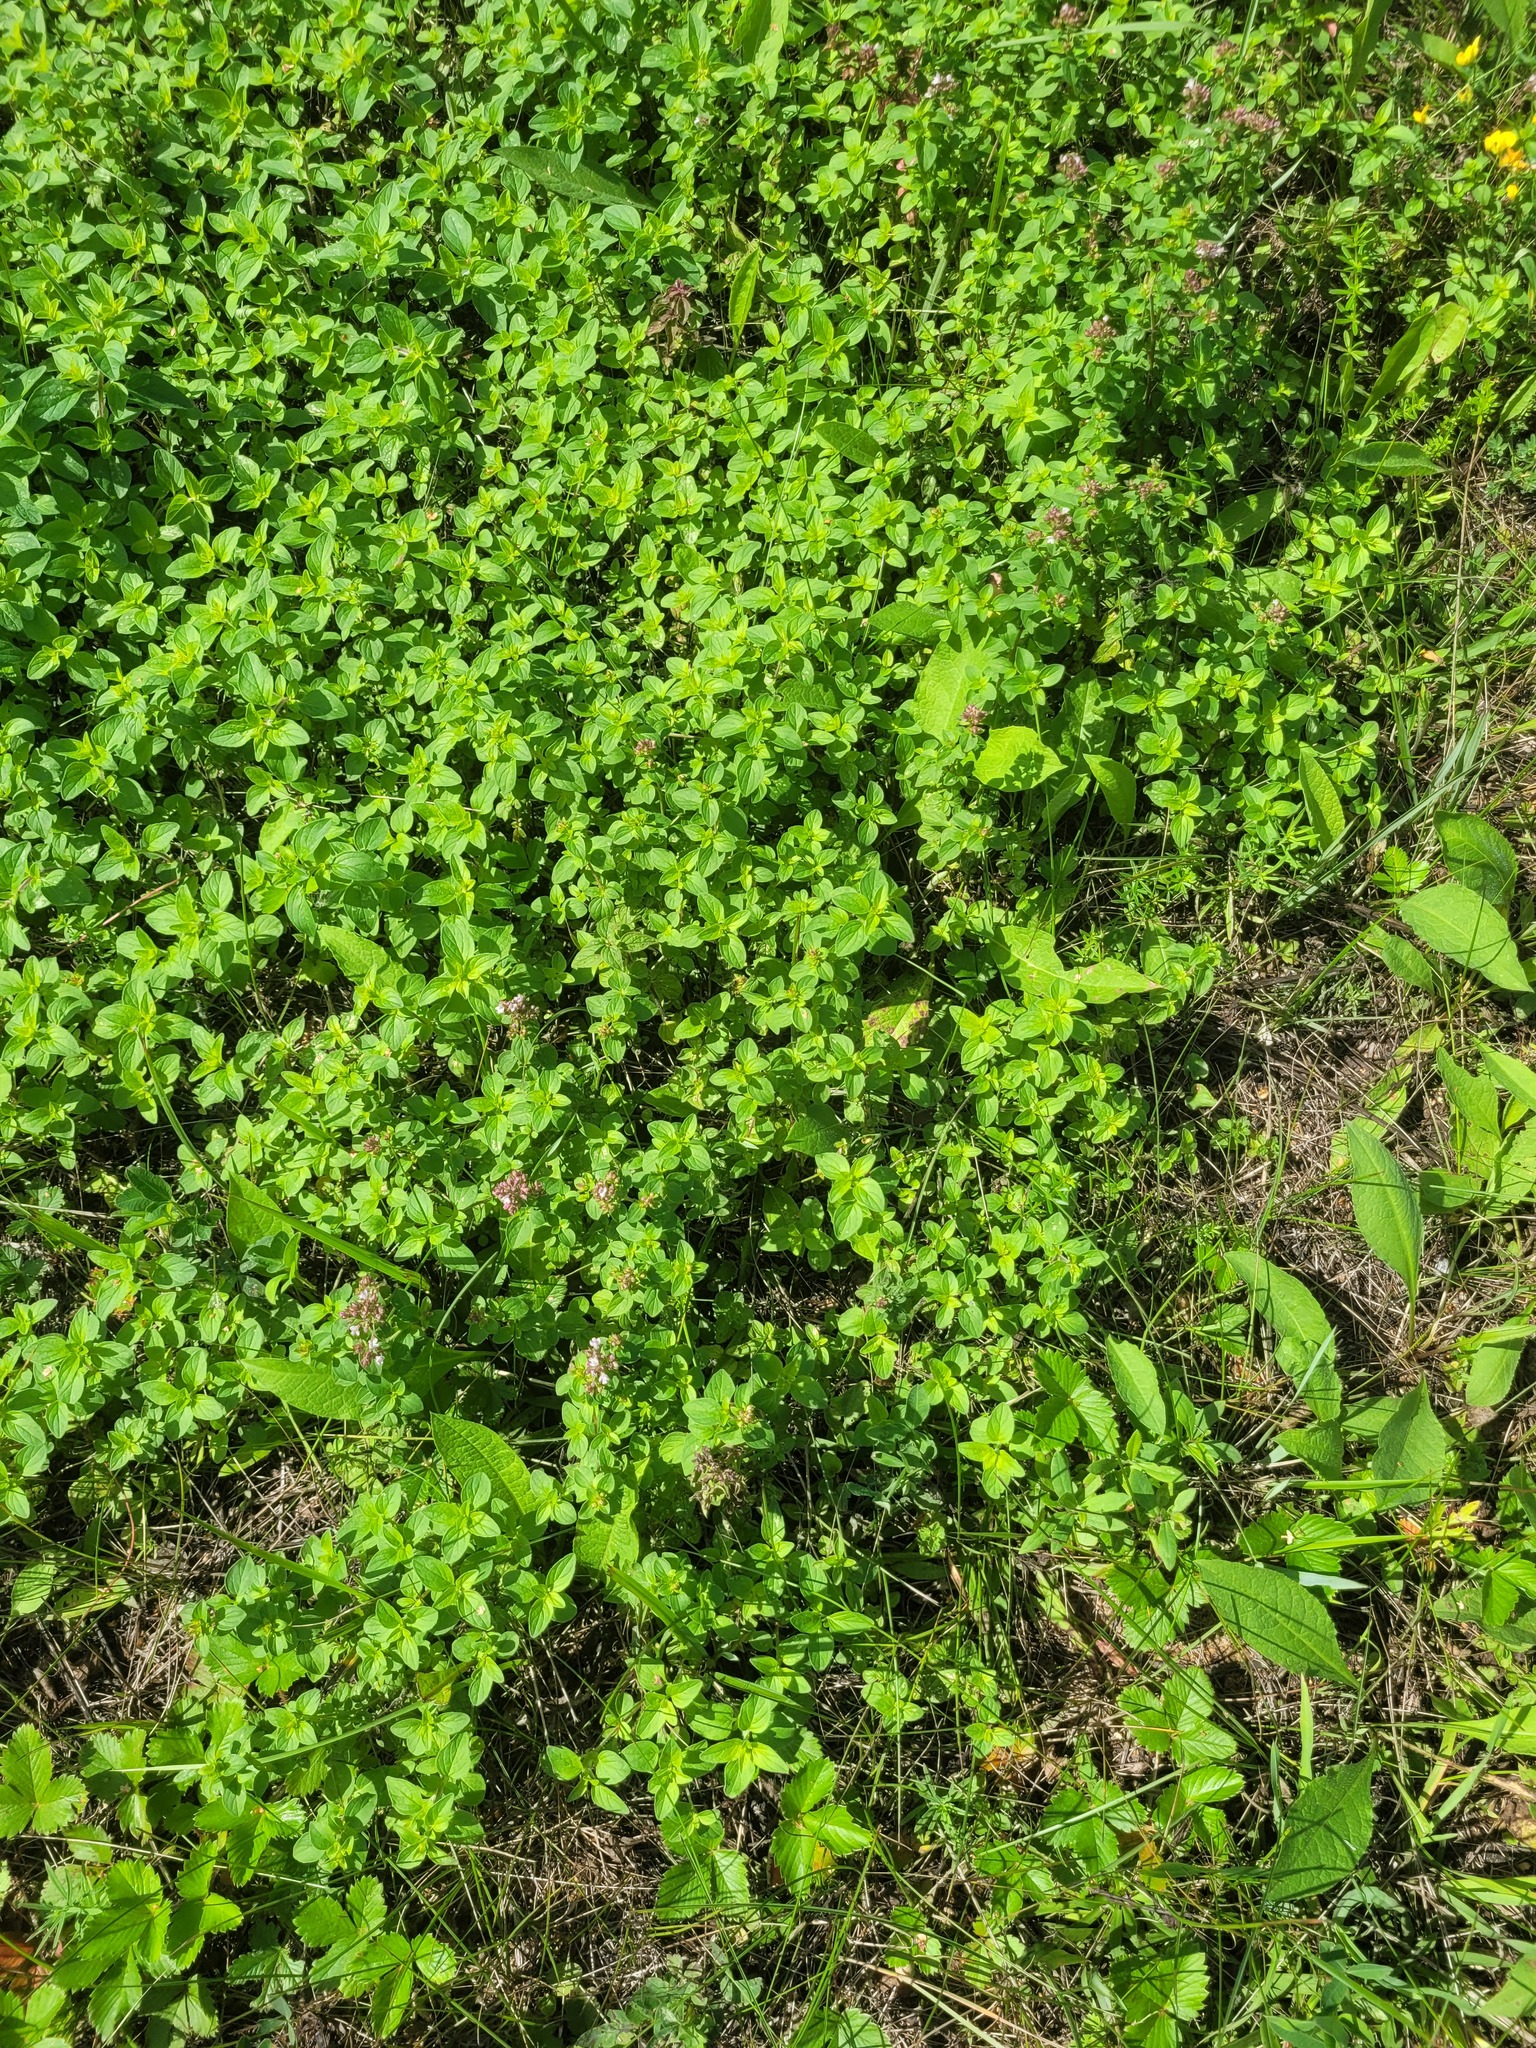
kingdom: Plantae
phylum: Tracheophyta
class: Magnoliopsida
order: Lamiales
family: Lamiaceae
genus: Origanum
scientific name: Origanum vulgare
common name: Wild marjoram
